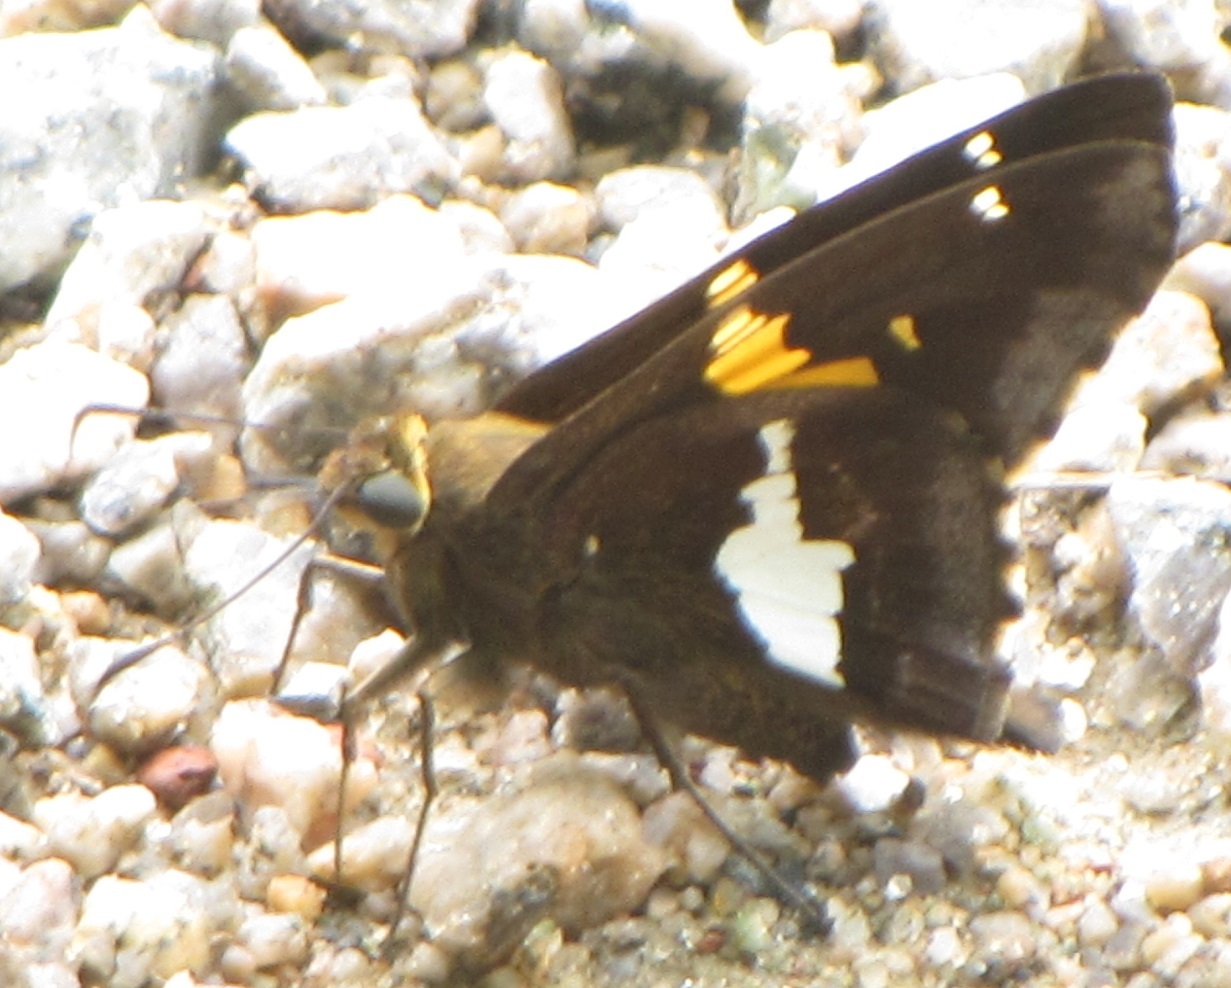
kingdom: Animalia
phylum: Arthropoda
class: Insecta
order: Lepidoptera
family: Hesperiidae
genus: Epargyreus
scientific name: Epargyreus clarus
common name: Silver-spotted skipper
